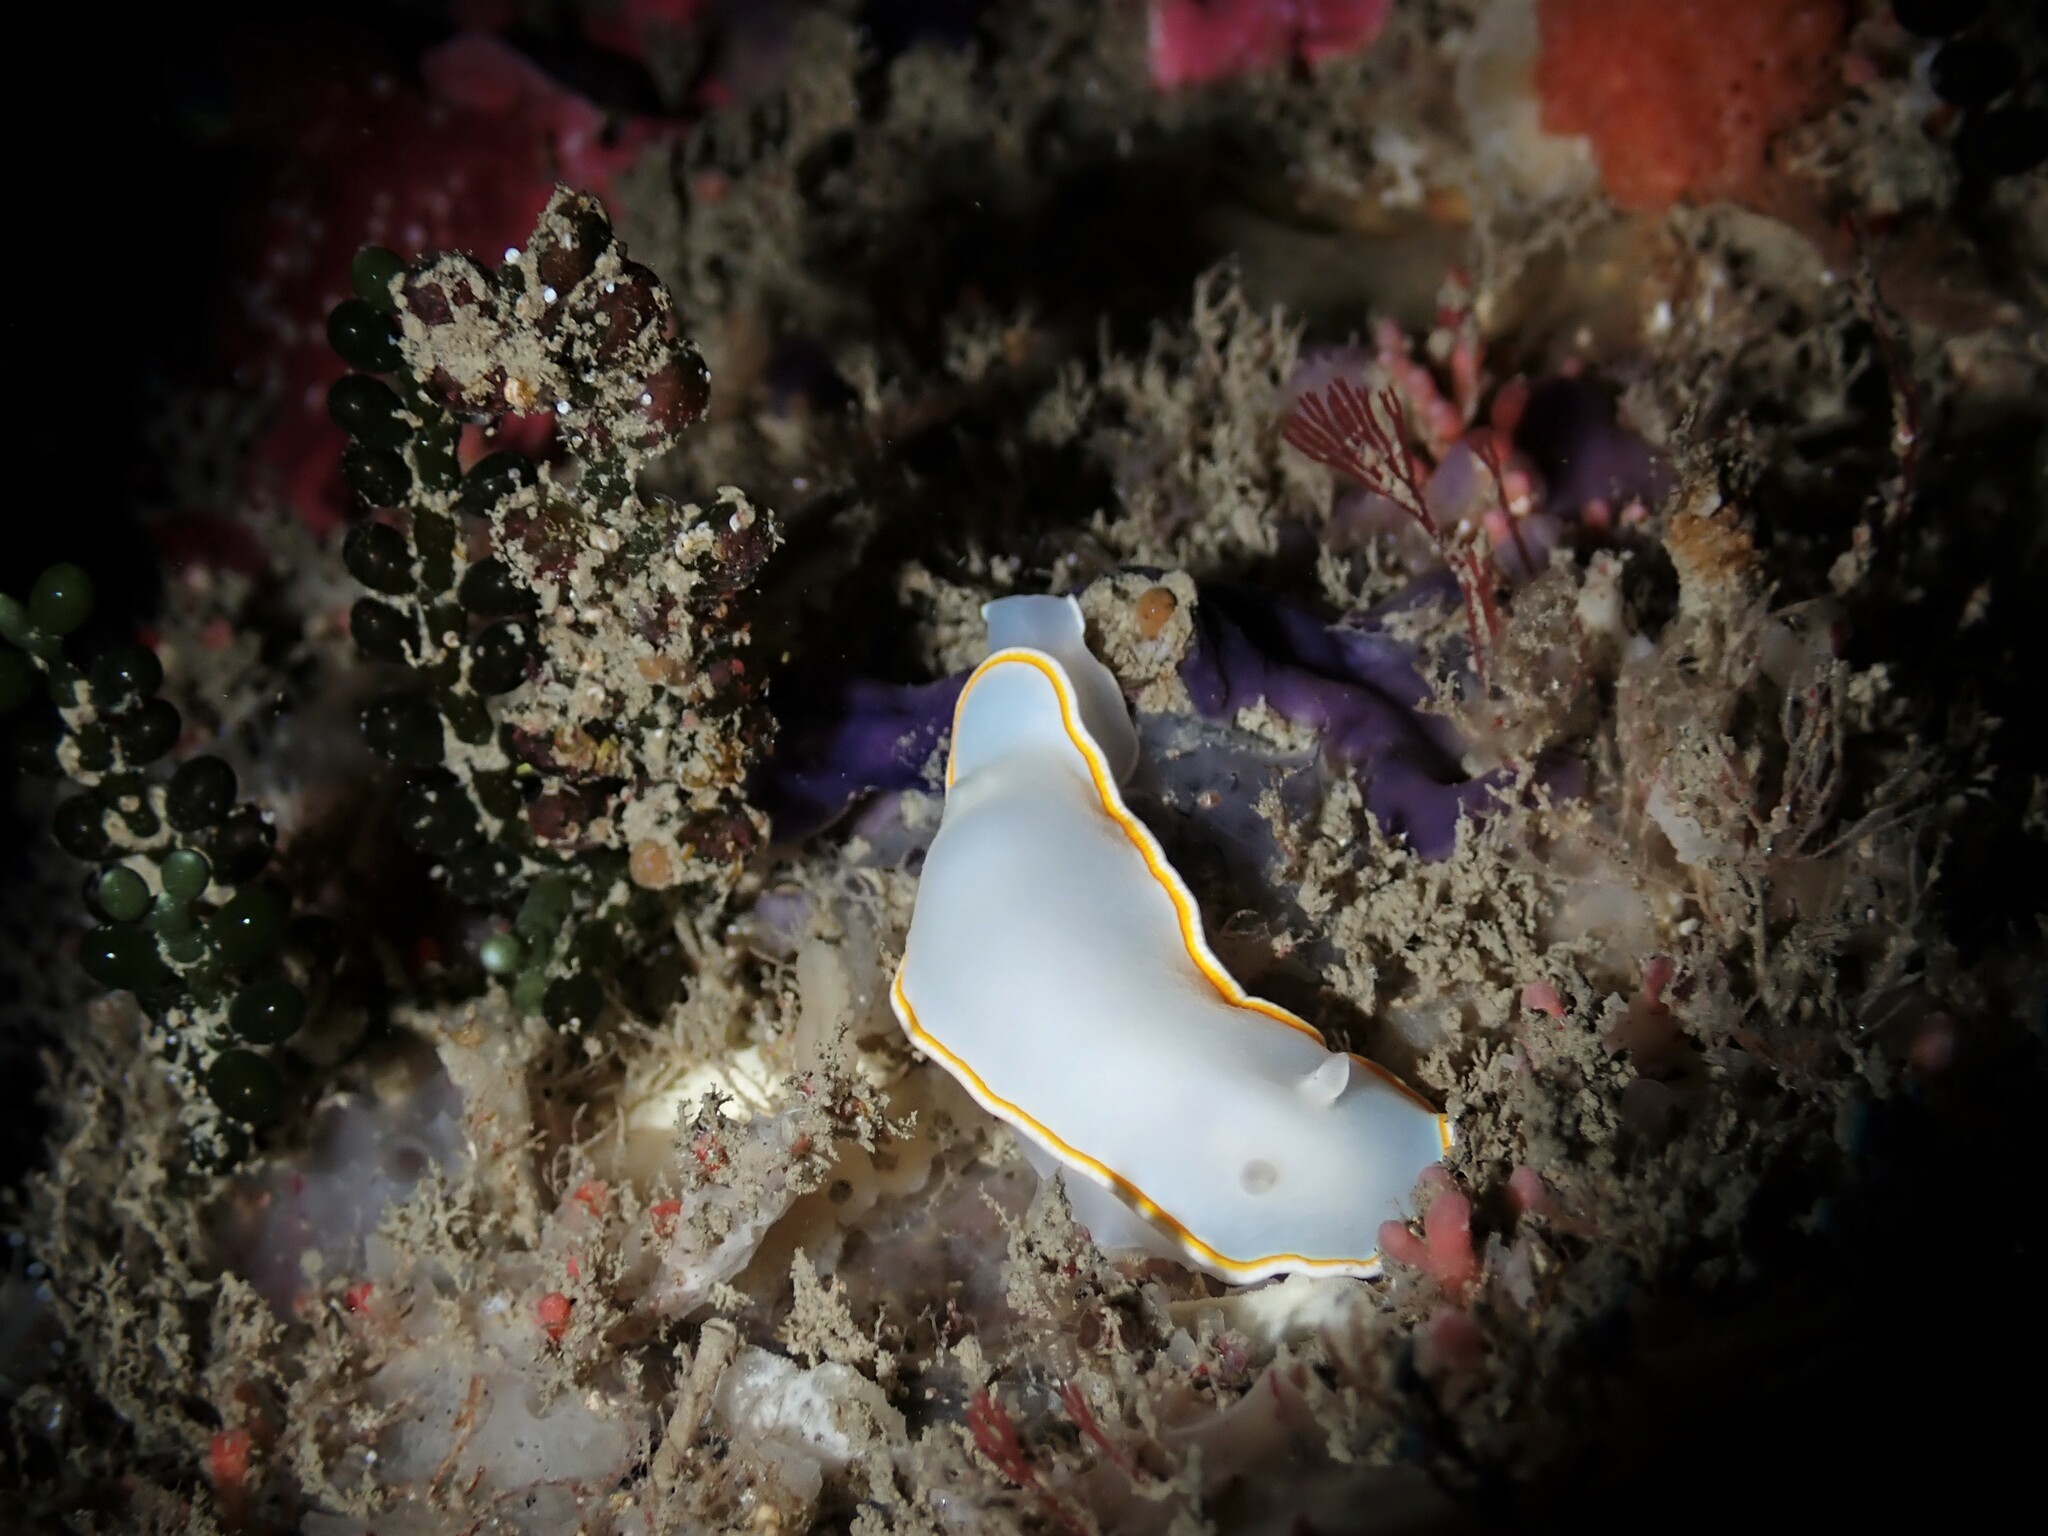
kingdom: Animalia
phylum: Mollusca
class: Gastropoda
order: Nudibranchia
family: Chromodorididae
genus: Goniobranchus
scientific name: Goniobranchus aureomarginatus
